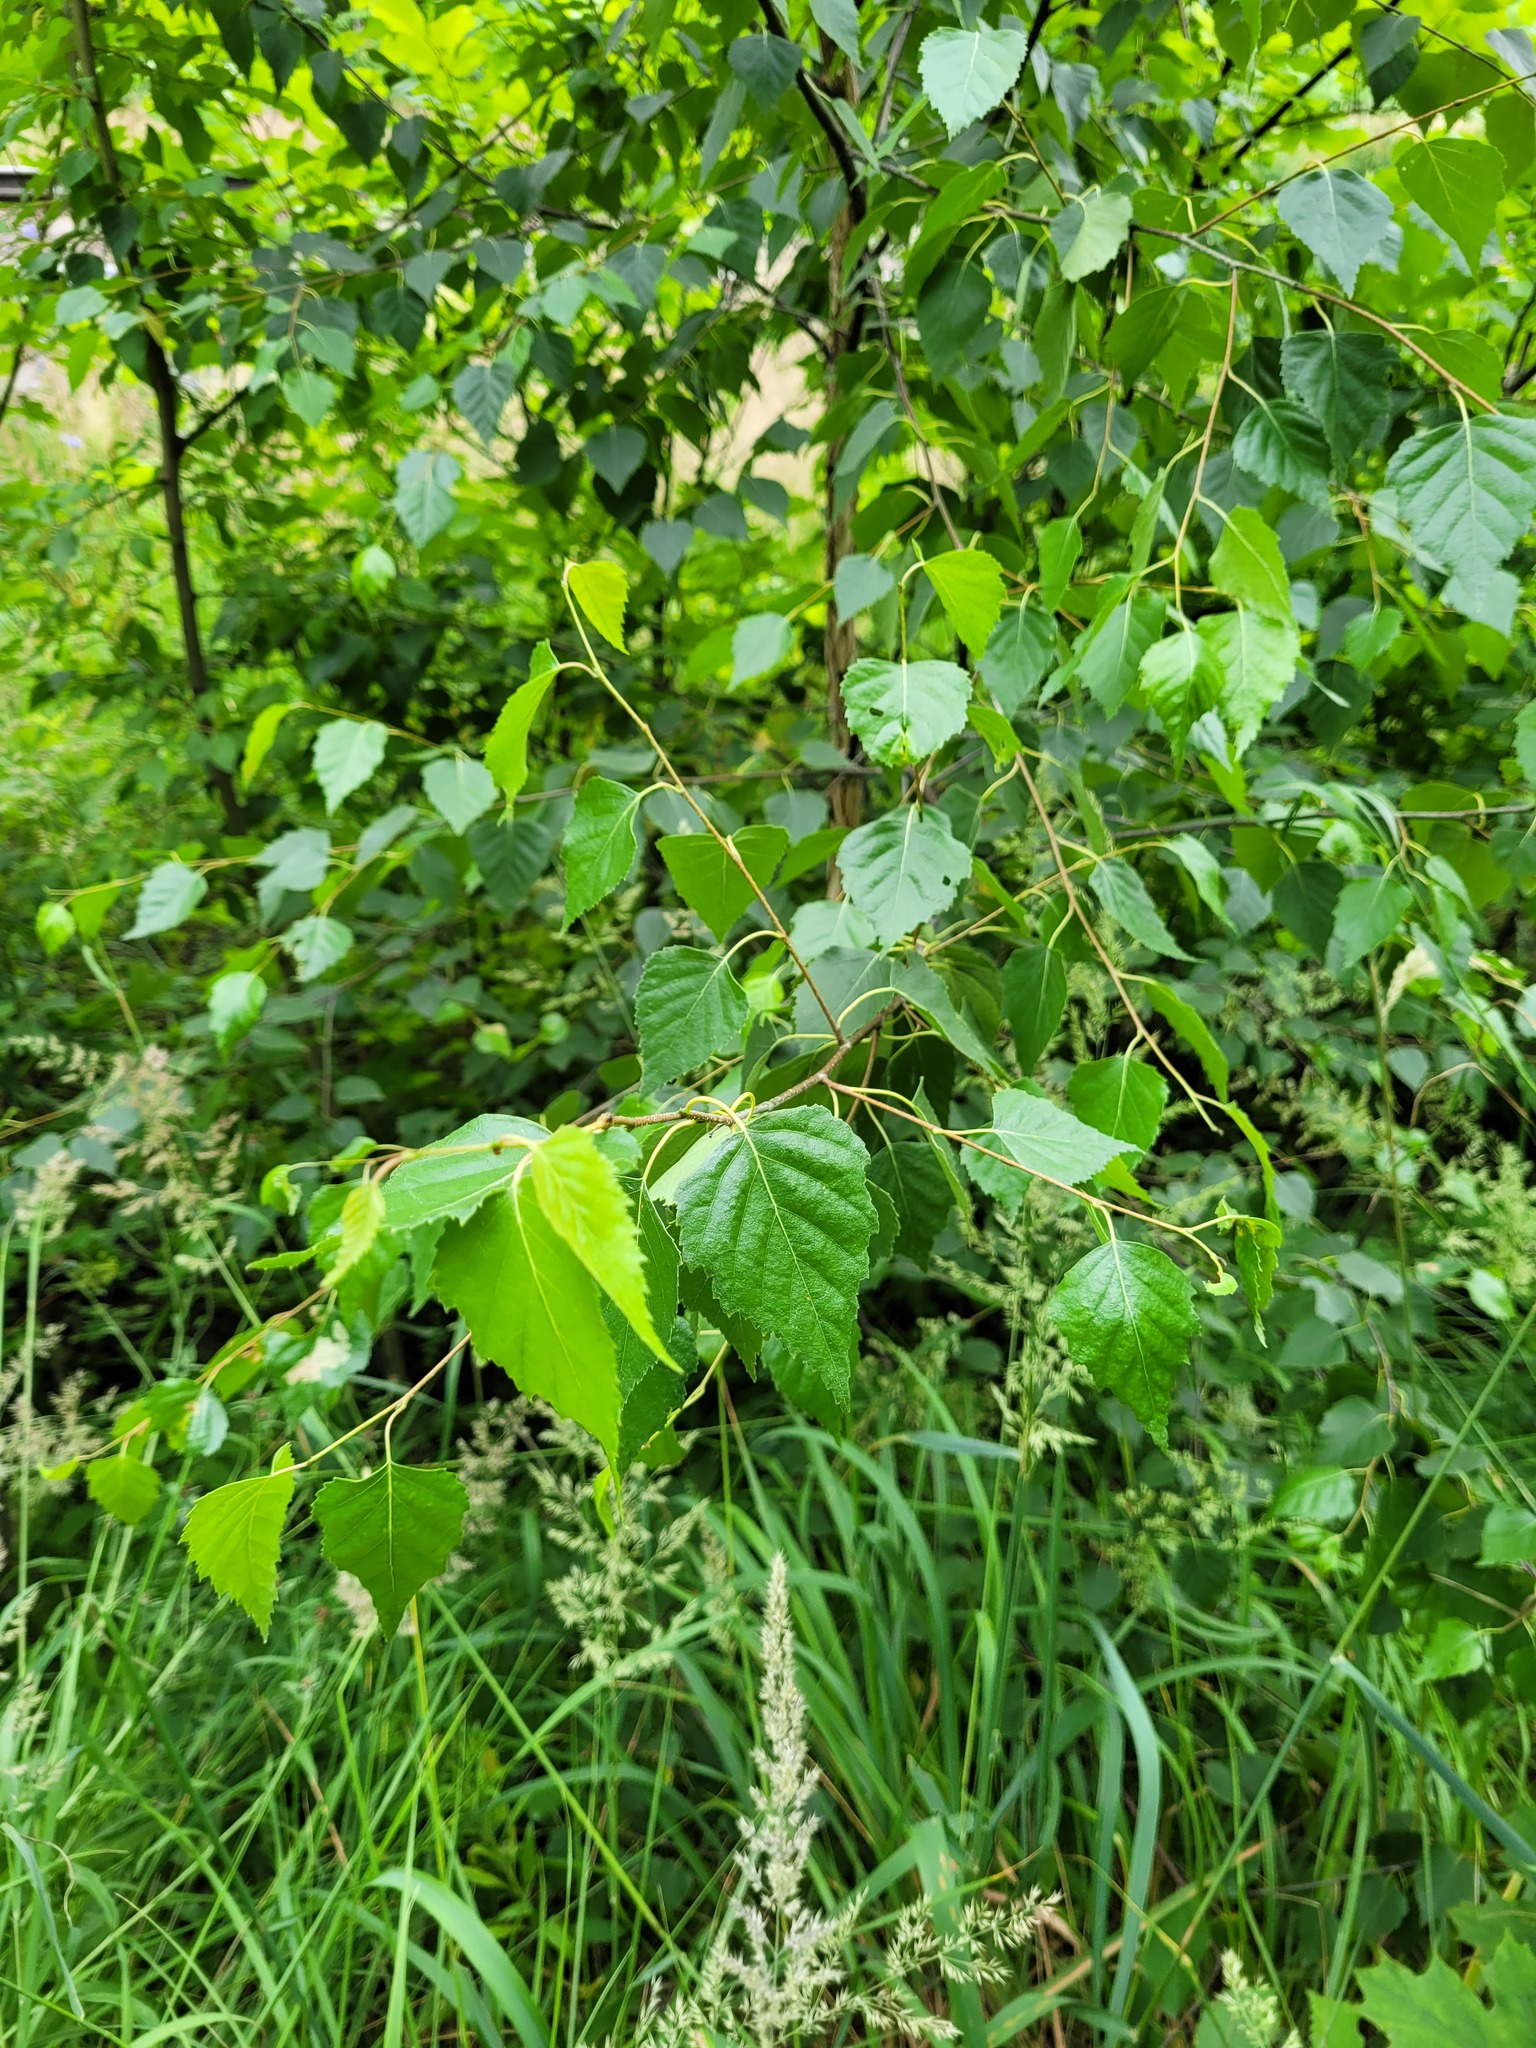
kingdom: Plantae
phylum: Tracheophyta
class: Magnoliopsida
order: Fagales
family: Betulaceae
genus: Betula
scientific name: Betula pendula
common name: Silver birch
